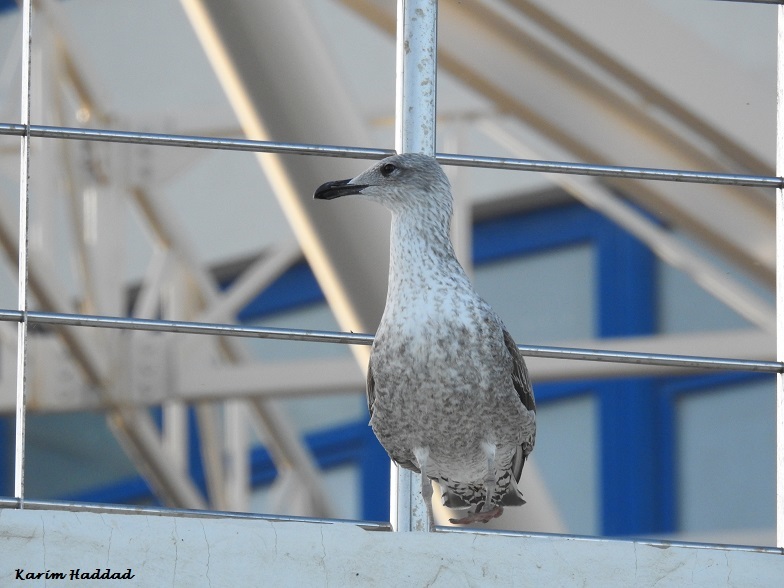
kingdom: Animalia
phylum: Chordata
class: Aves
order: Charadriiformes
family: Laridae
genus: Larus
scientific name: Larus cachinnans
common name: Caspian gull
